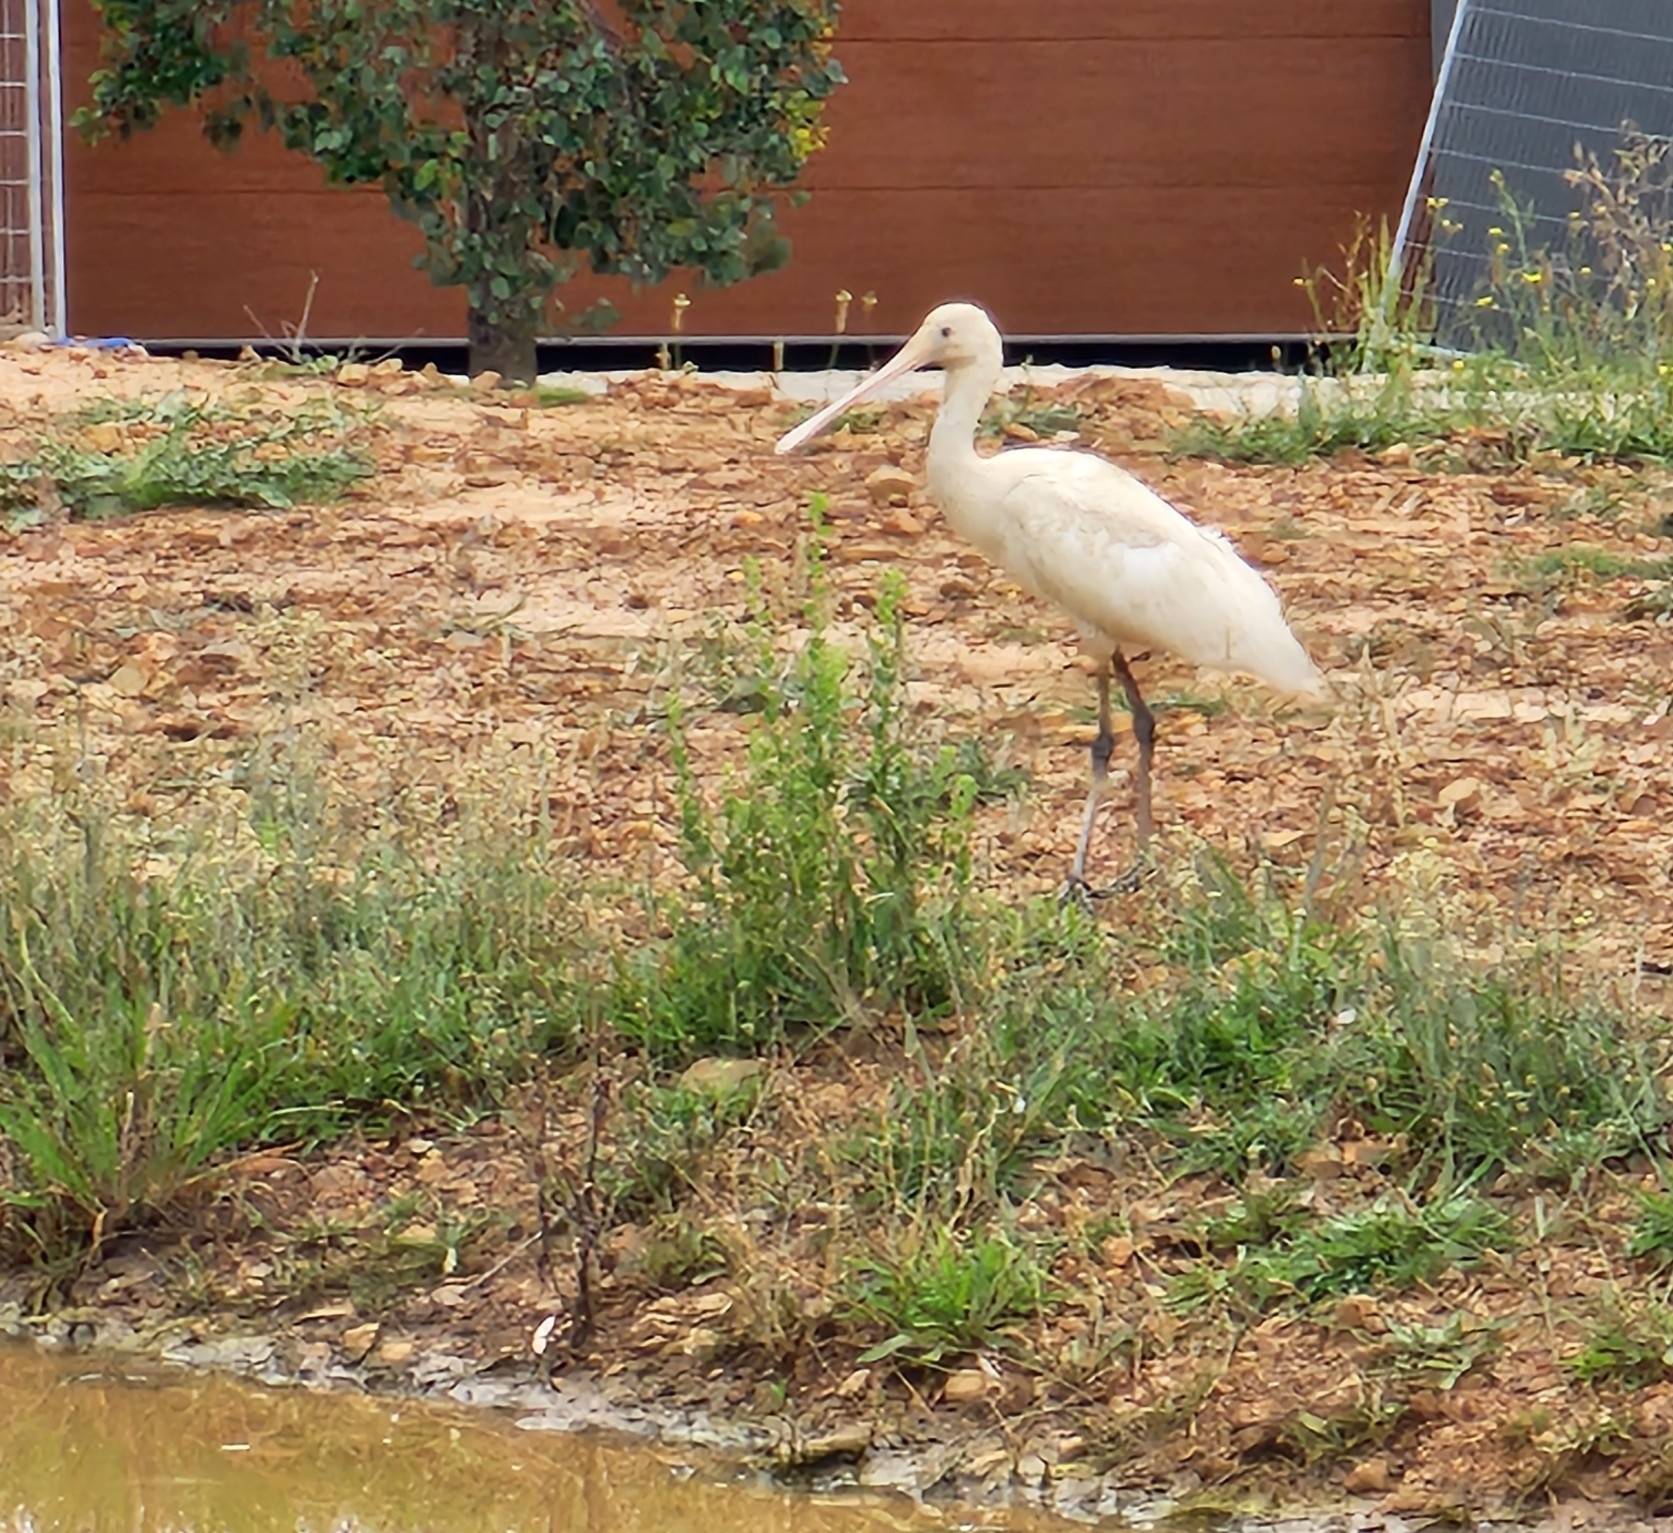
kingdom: Animalia
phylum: Chordata
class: Aves
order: Pelecaniformes
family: Threskiornithidae
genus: Platalea
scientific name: Platalea flavipes
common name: Yellow-billed spoonbill
